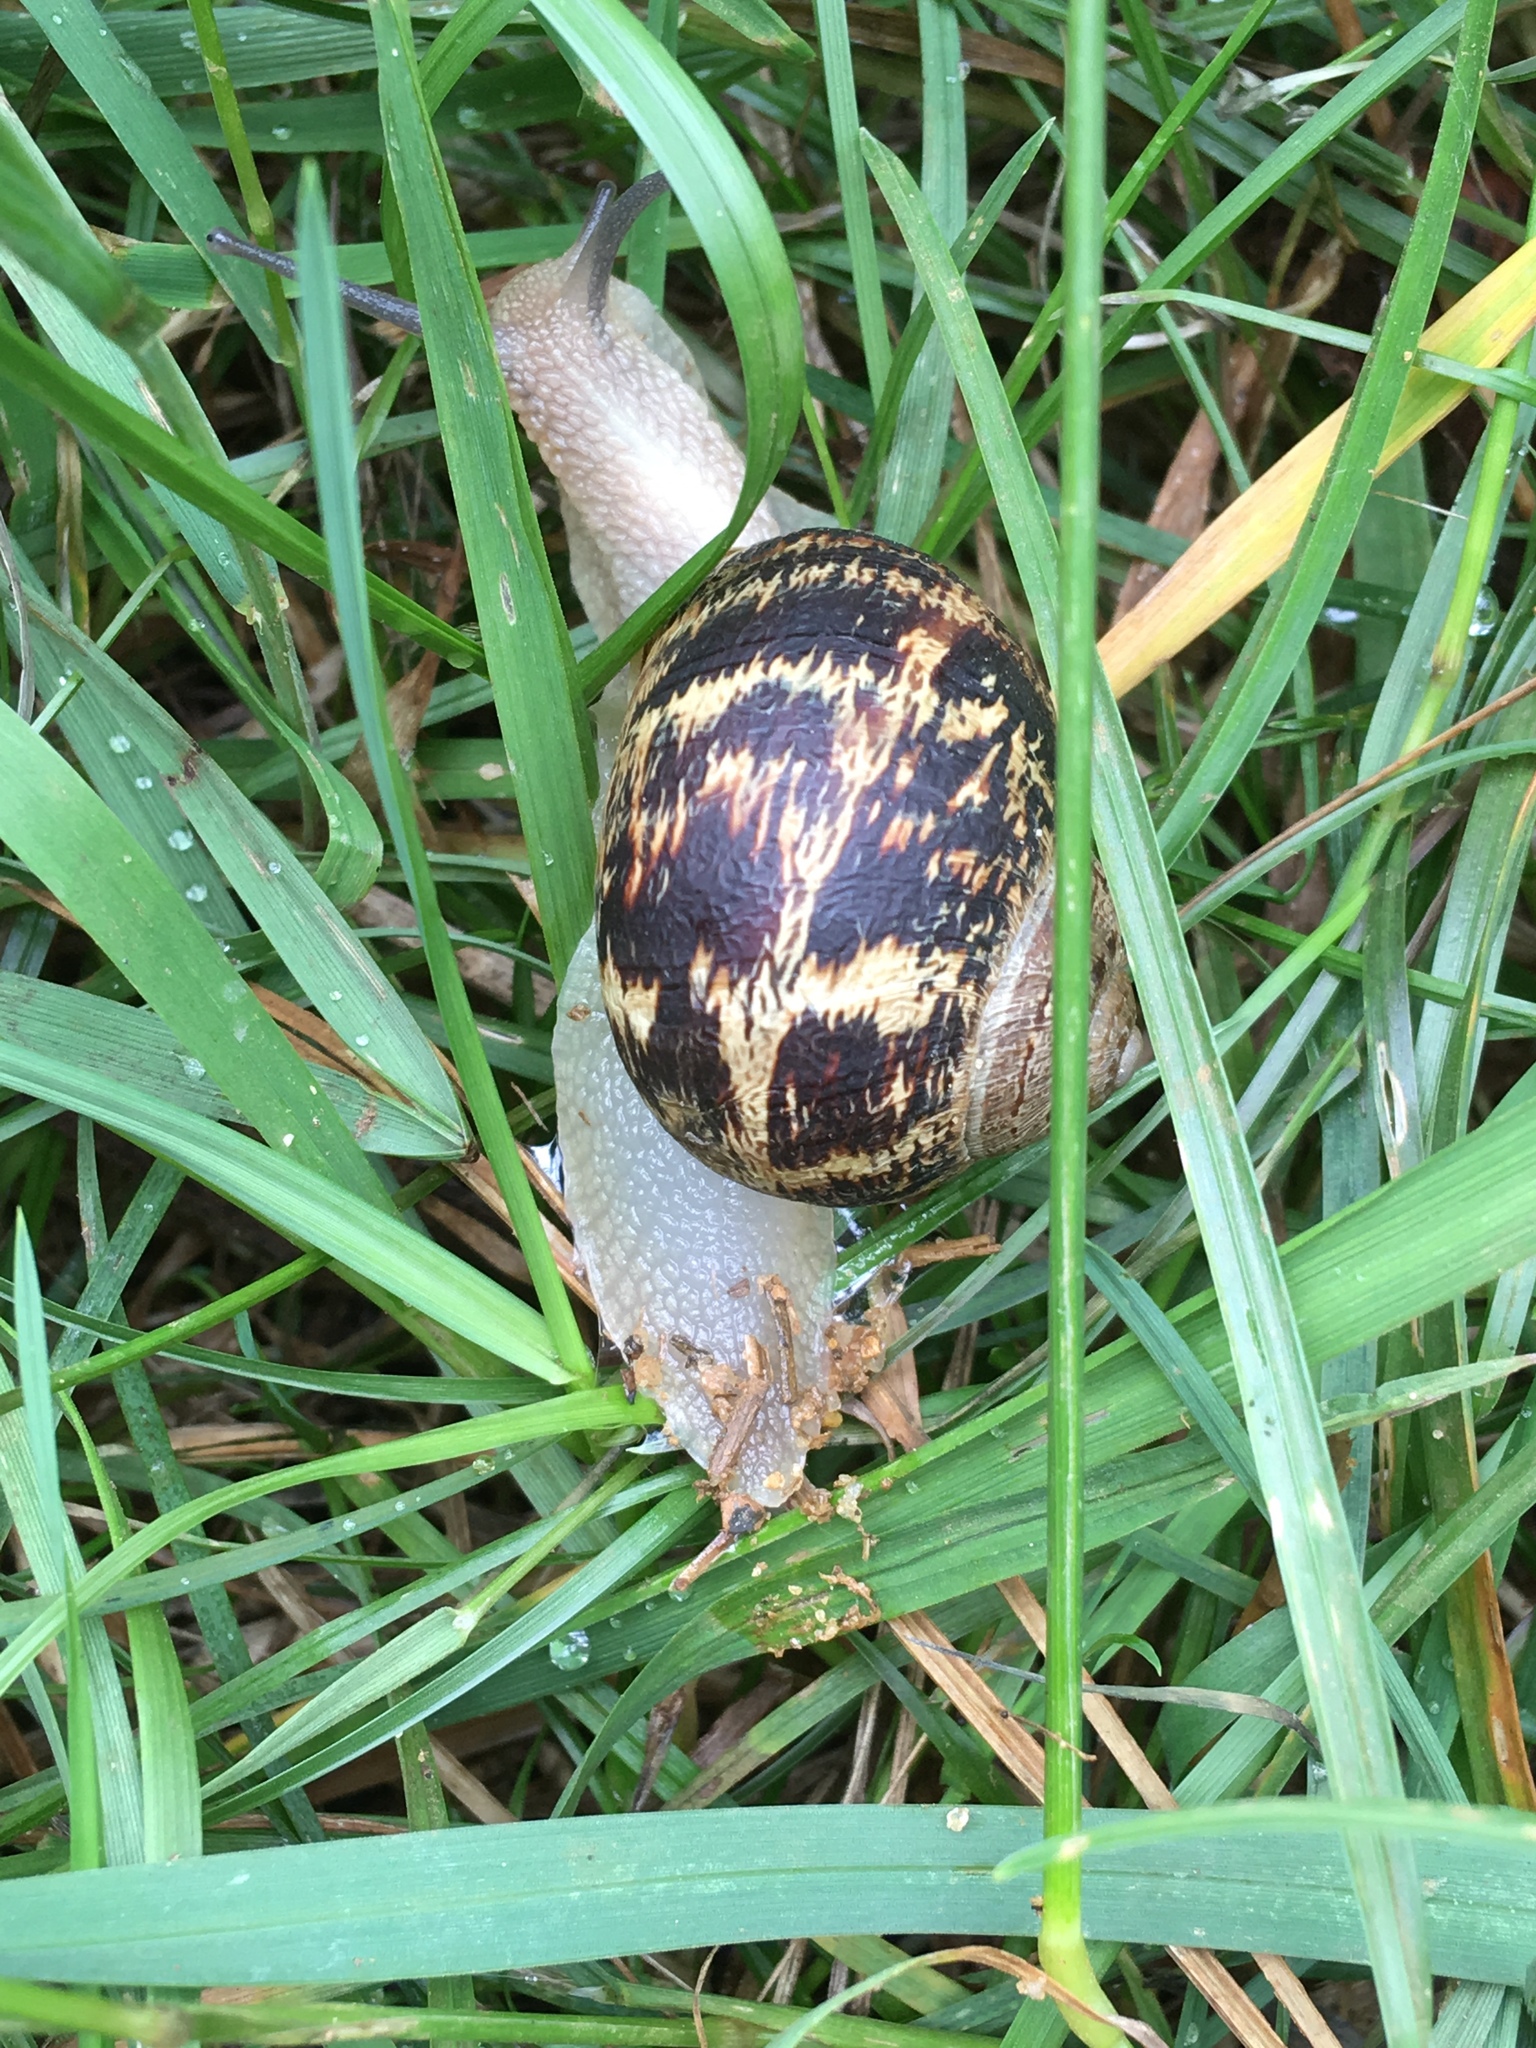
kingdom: Animalia
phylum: Mollusca
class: Gastropoda
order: Stylommatophora
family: Helicidae
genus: Cornu
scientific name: Cornu aspersum
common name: Brown garden snail
